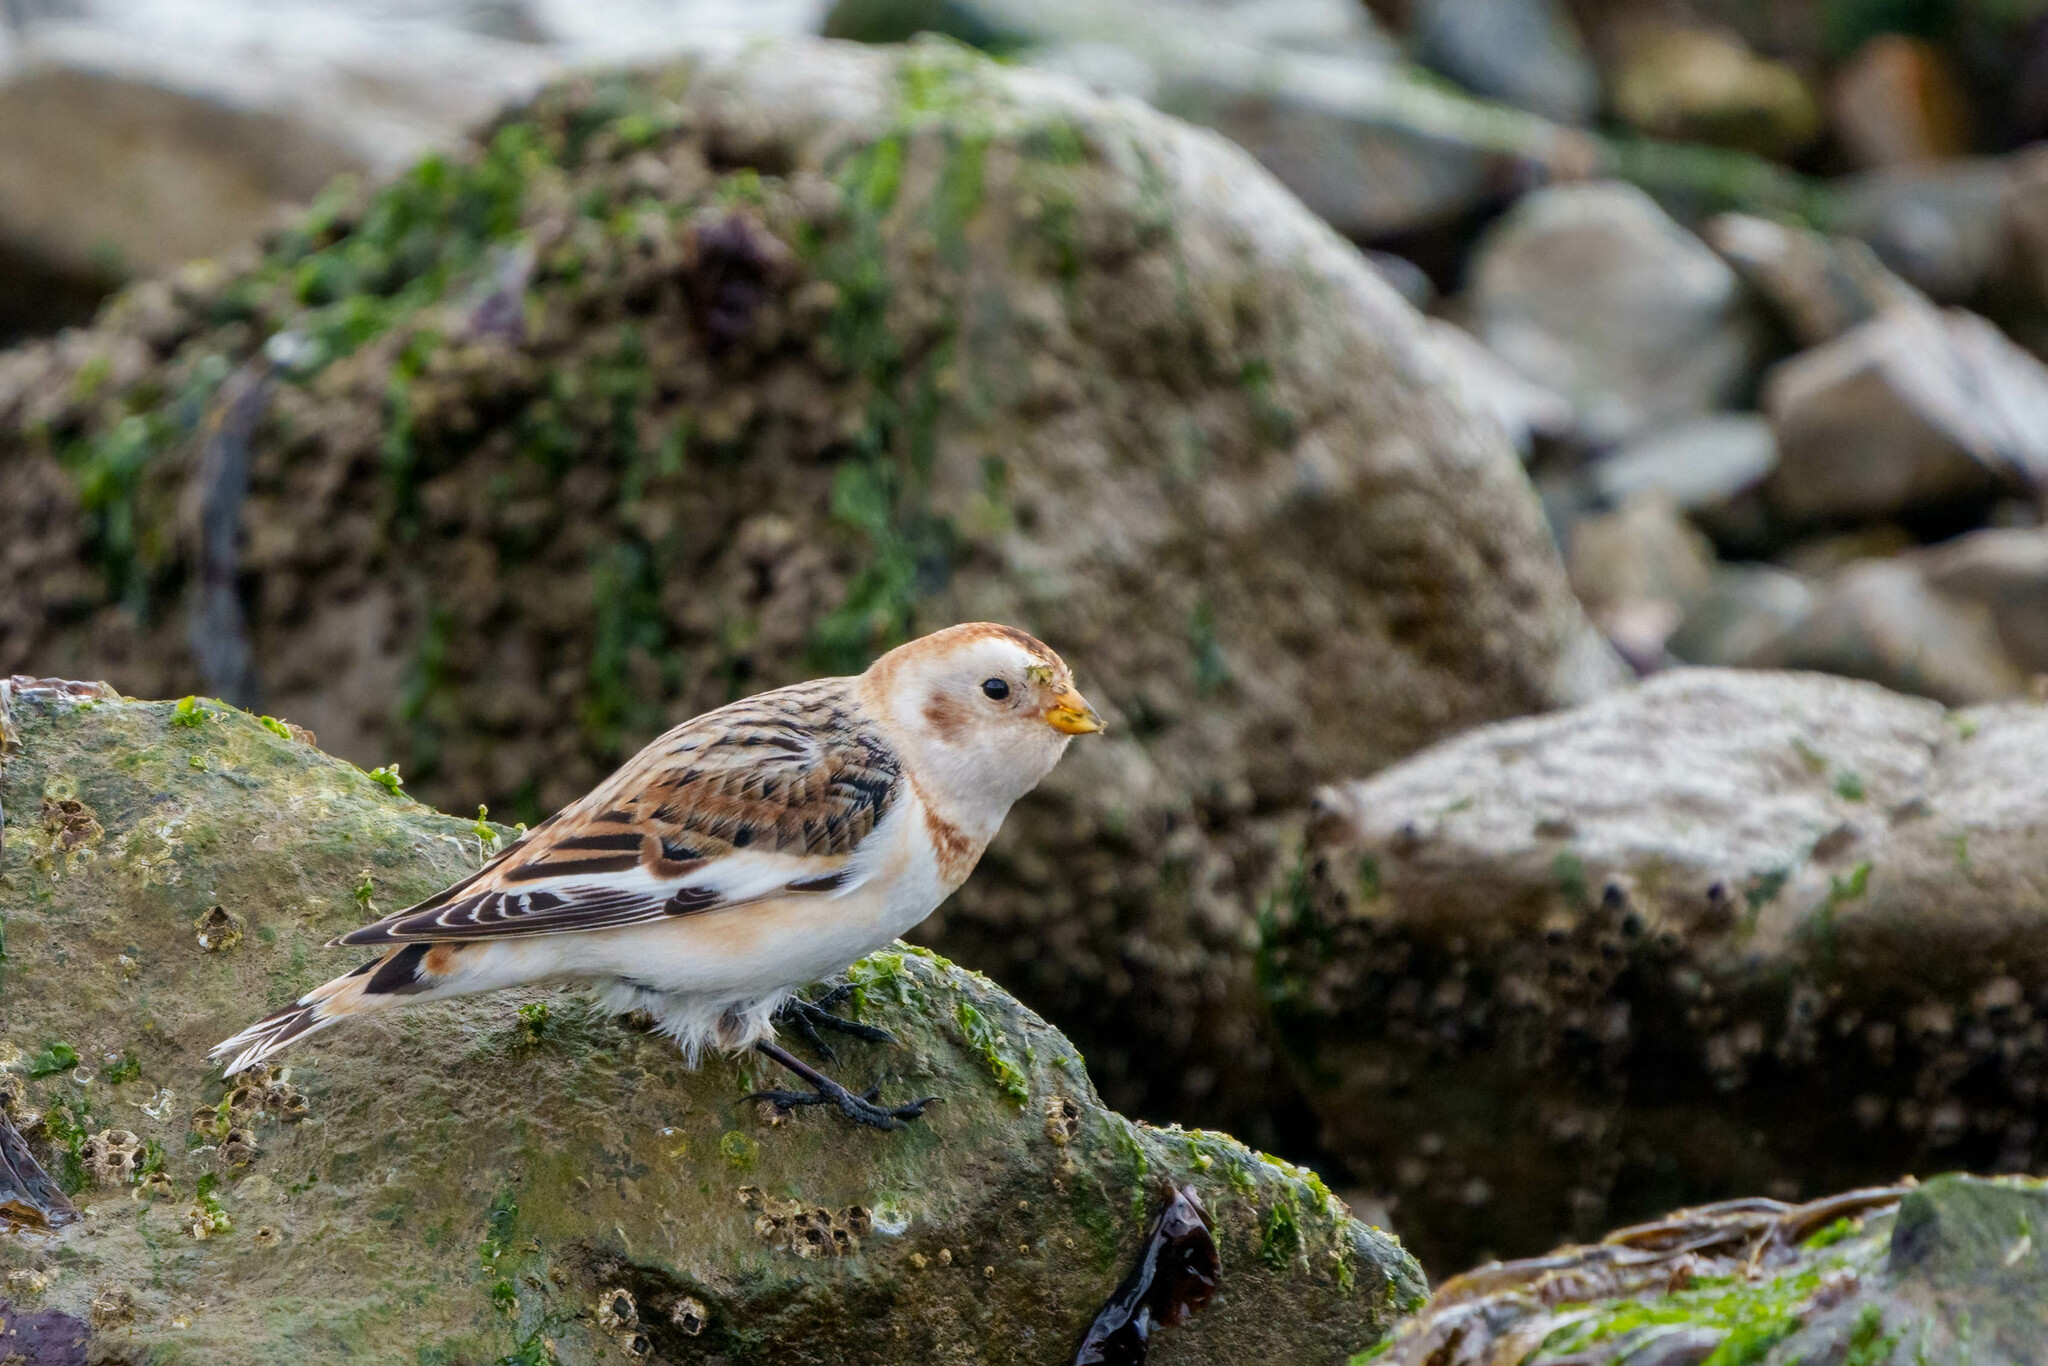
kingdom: Animalia
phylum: Chordata
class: Aves
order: Passeriformes
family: Calcariidae
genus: Plectrophenax
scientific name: Plectrophenax nivalis
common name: Snow bunting
